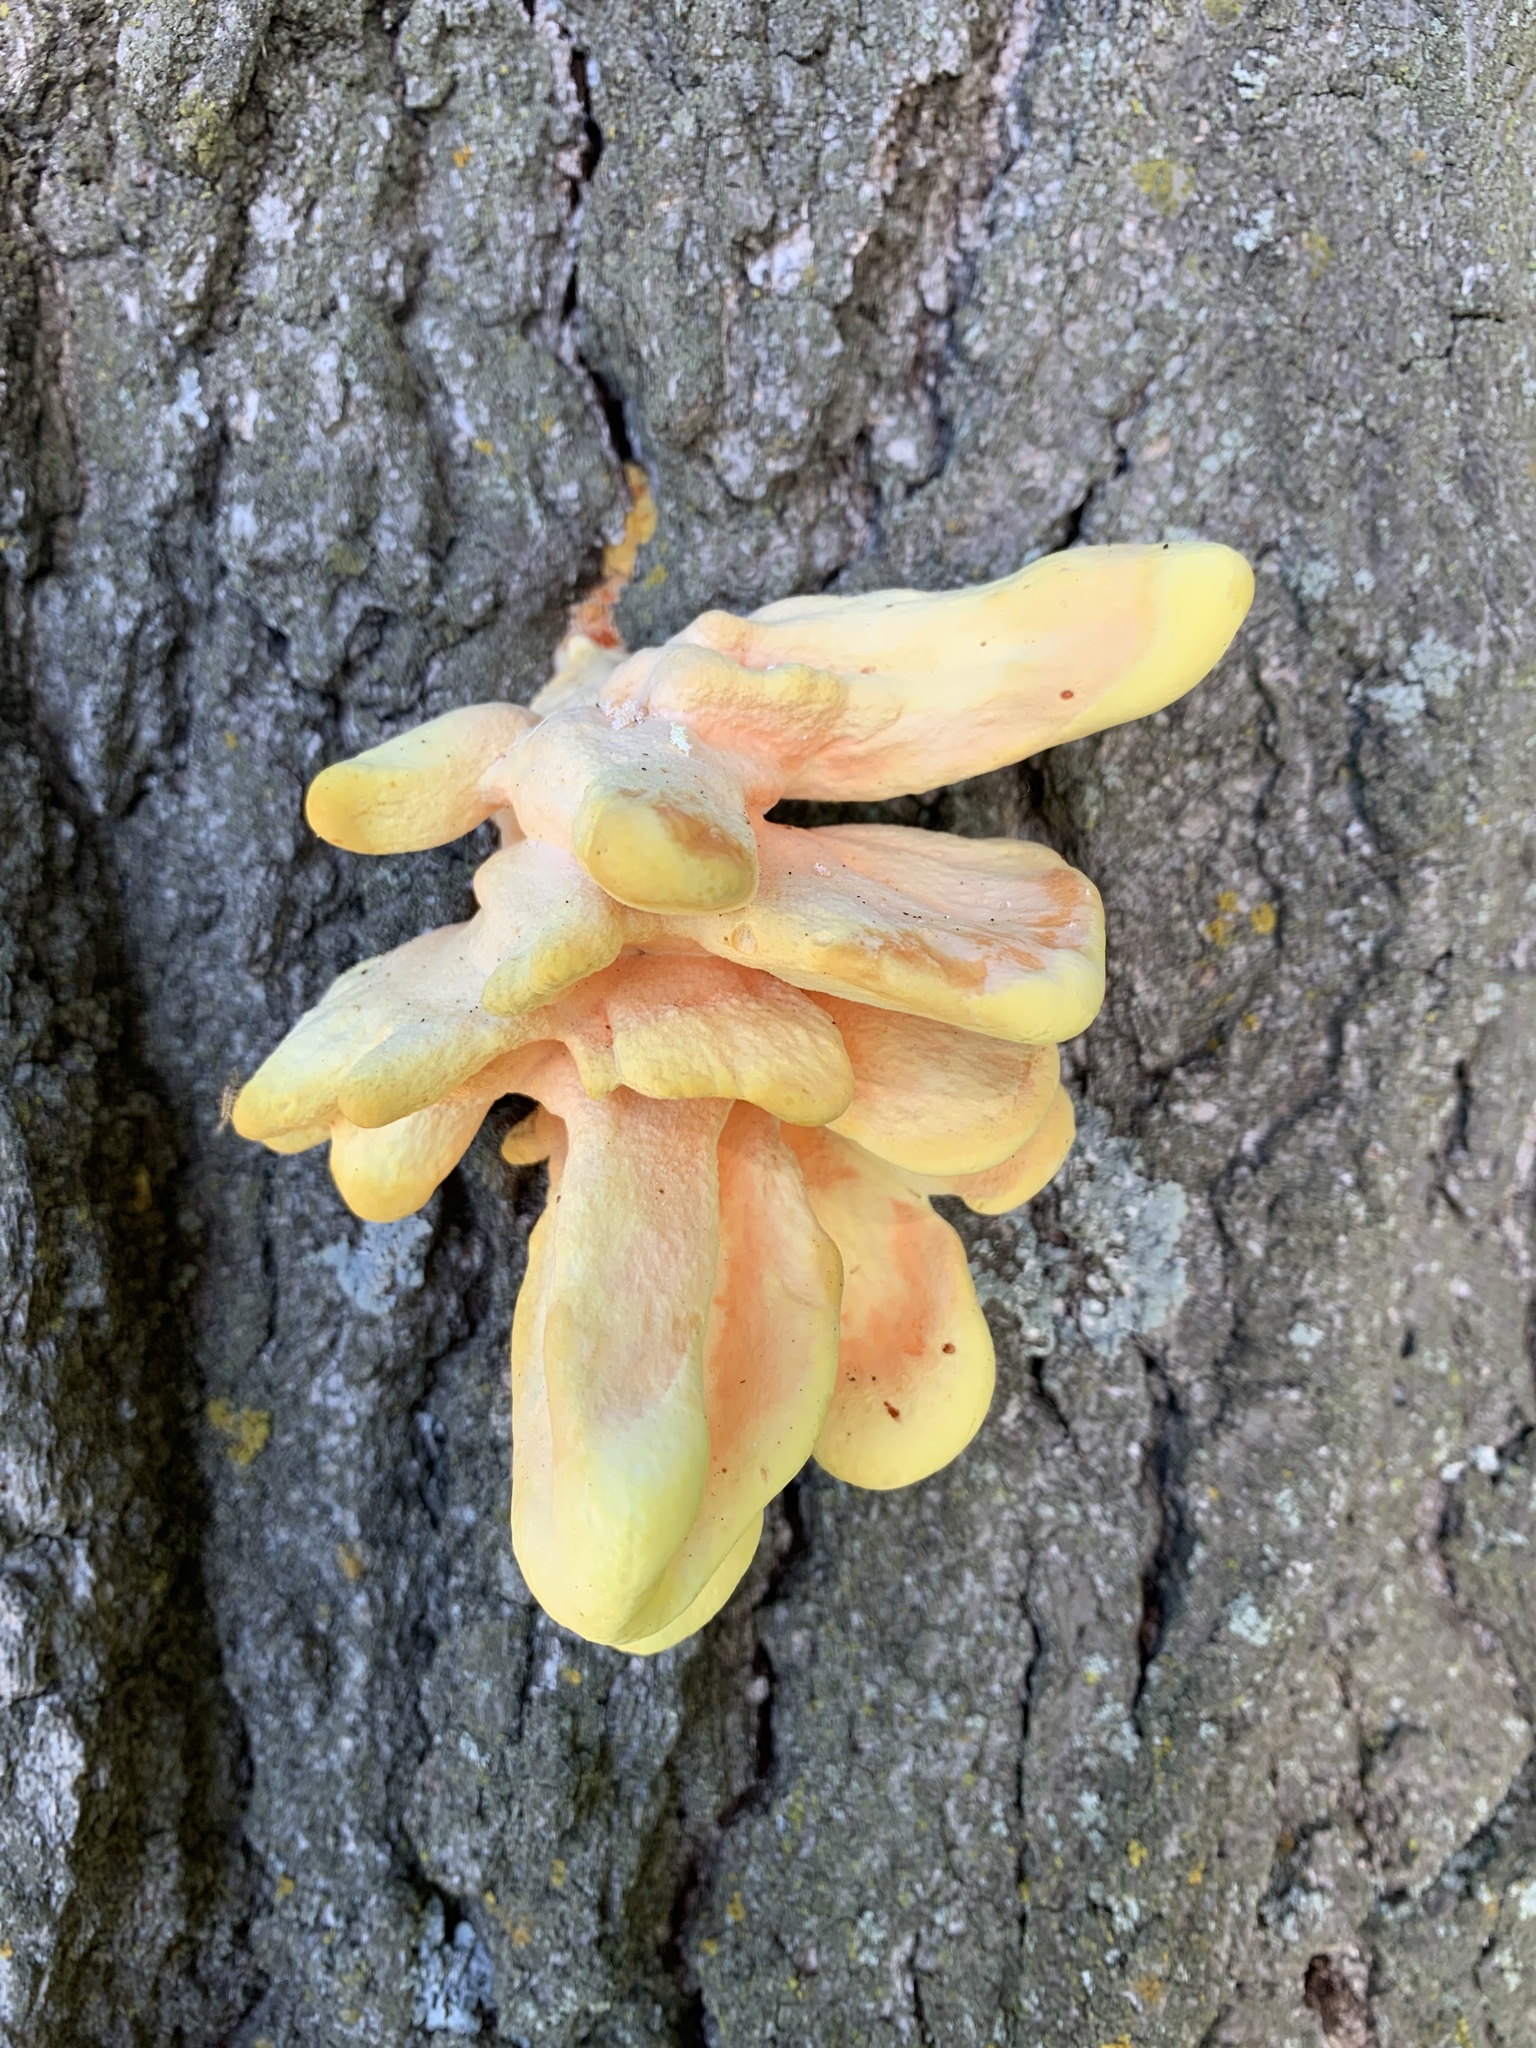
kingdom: Fungi
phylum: Basidiomycota
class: Agaricomycetes
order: Polyporales
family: Laetiporaceae
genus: Laetiporus
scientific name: Laetiporus sulphureus
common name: Chicken of the woods
